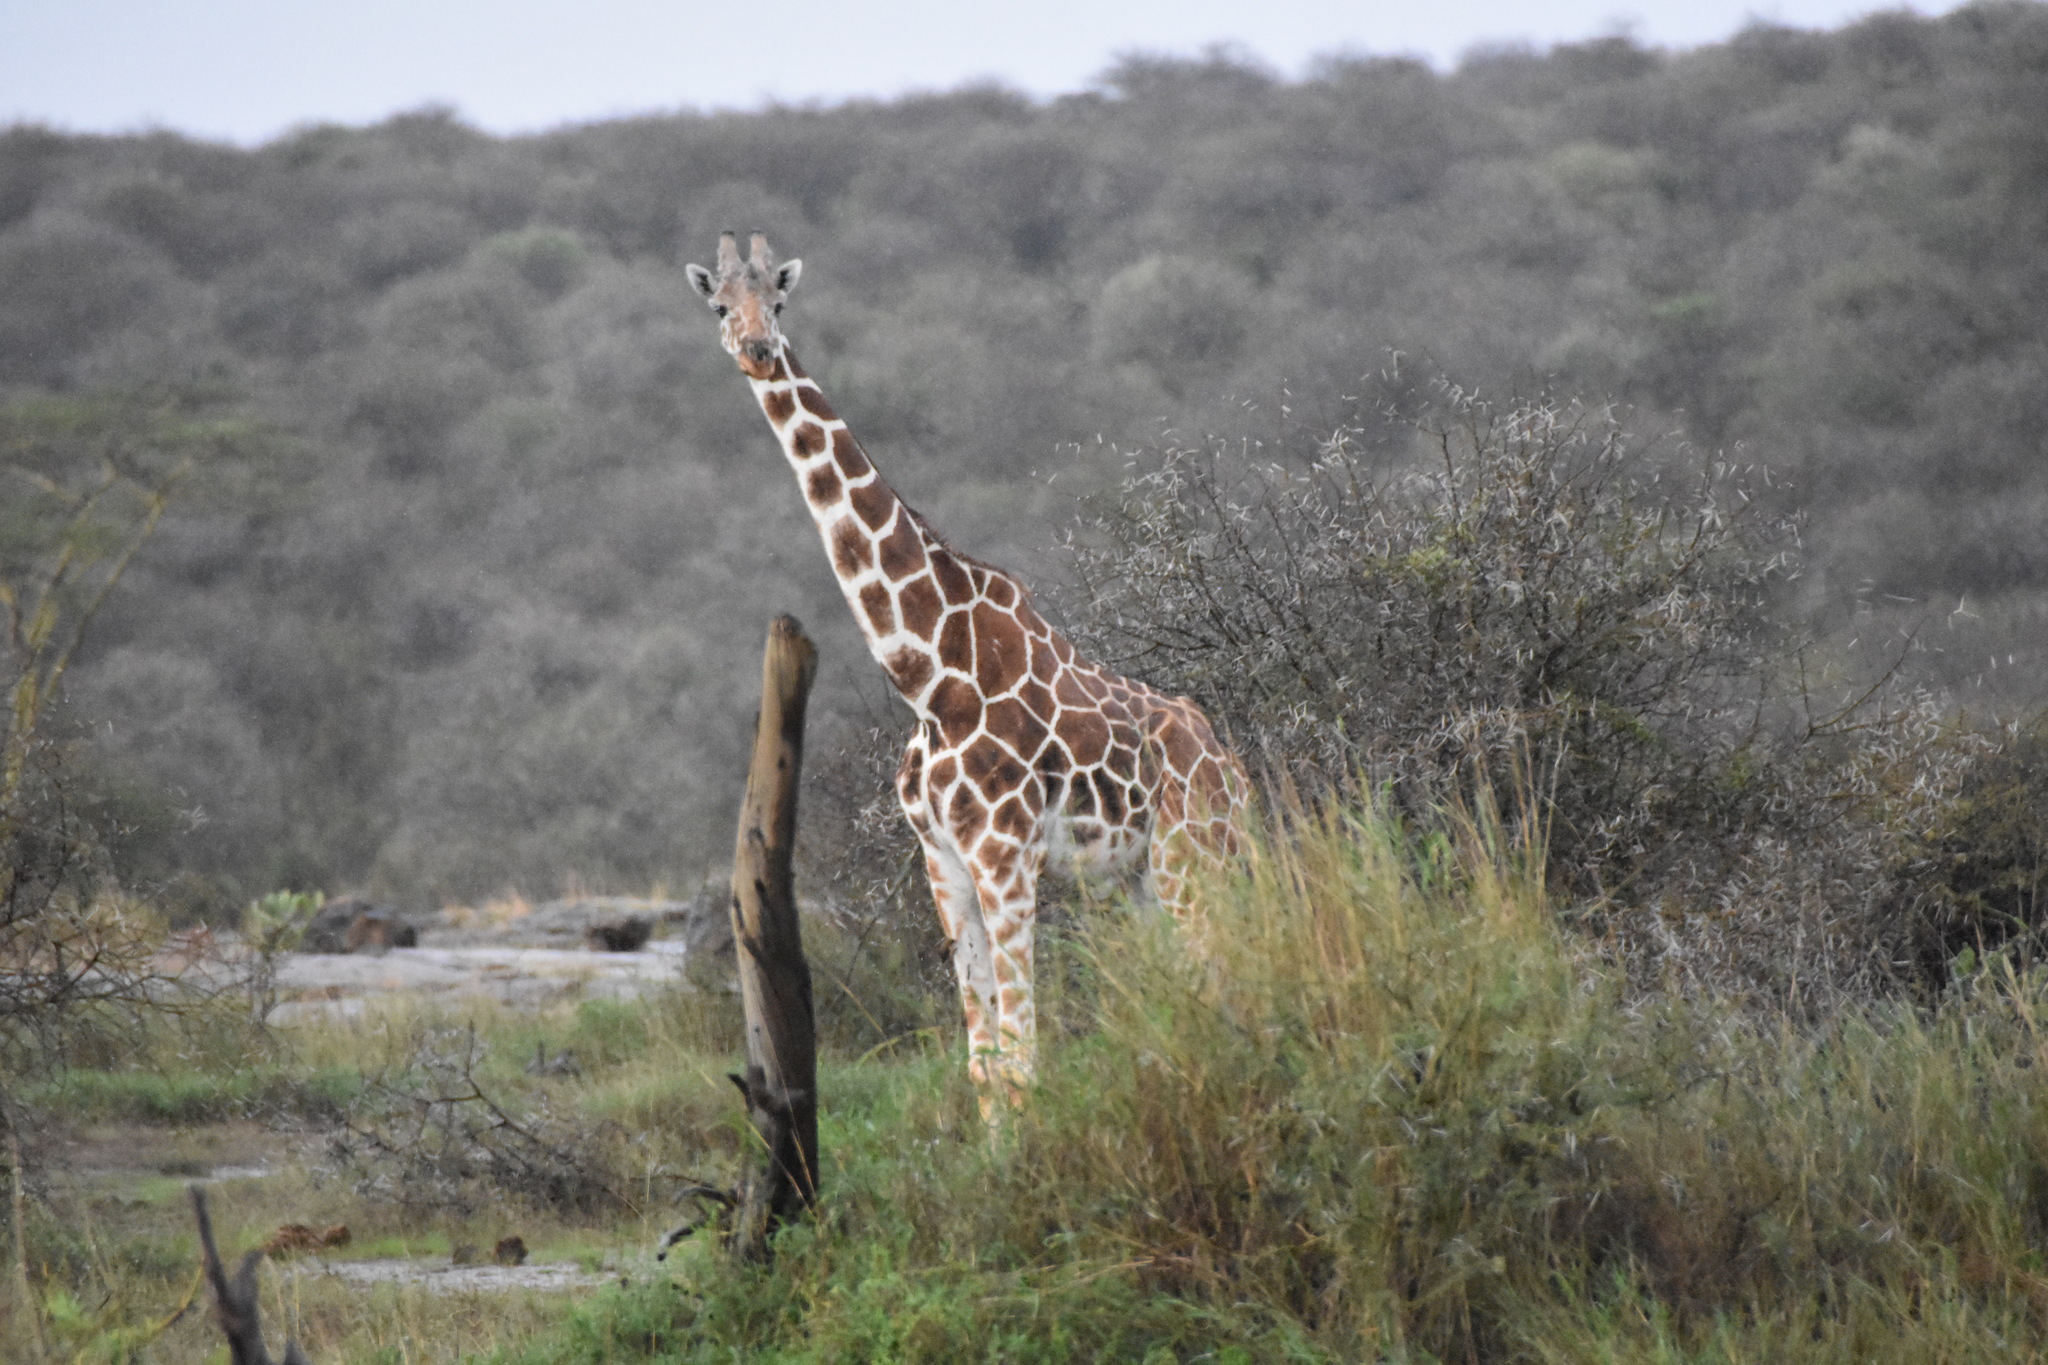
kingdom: Animalia
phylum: Chordata
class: Mammalia
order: Artiodactyla
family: Giraffidae
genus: Giraffa
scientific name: Giraffa reticulata
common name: Reticulated giraffe
